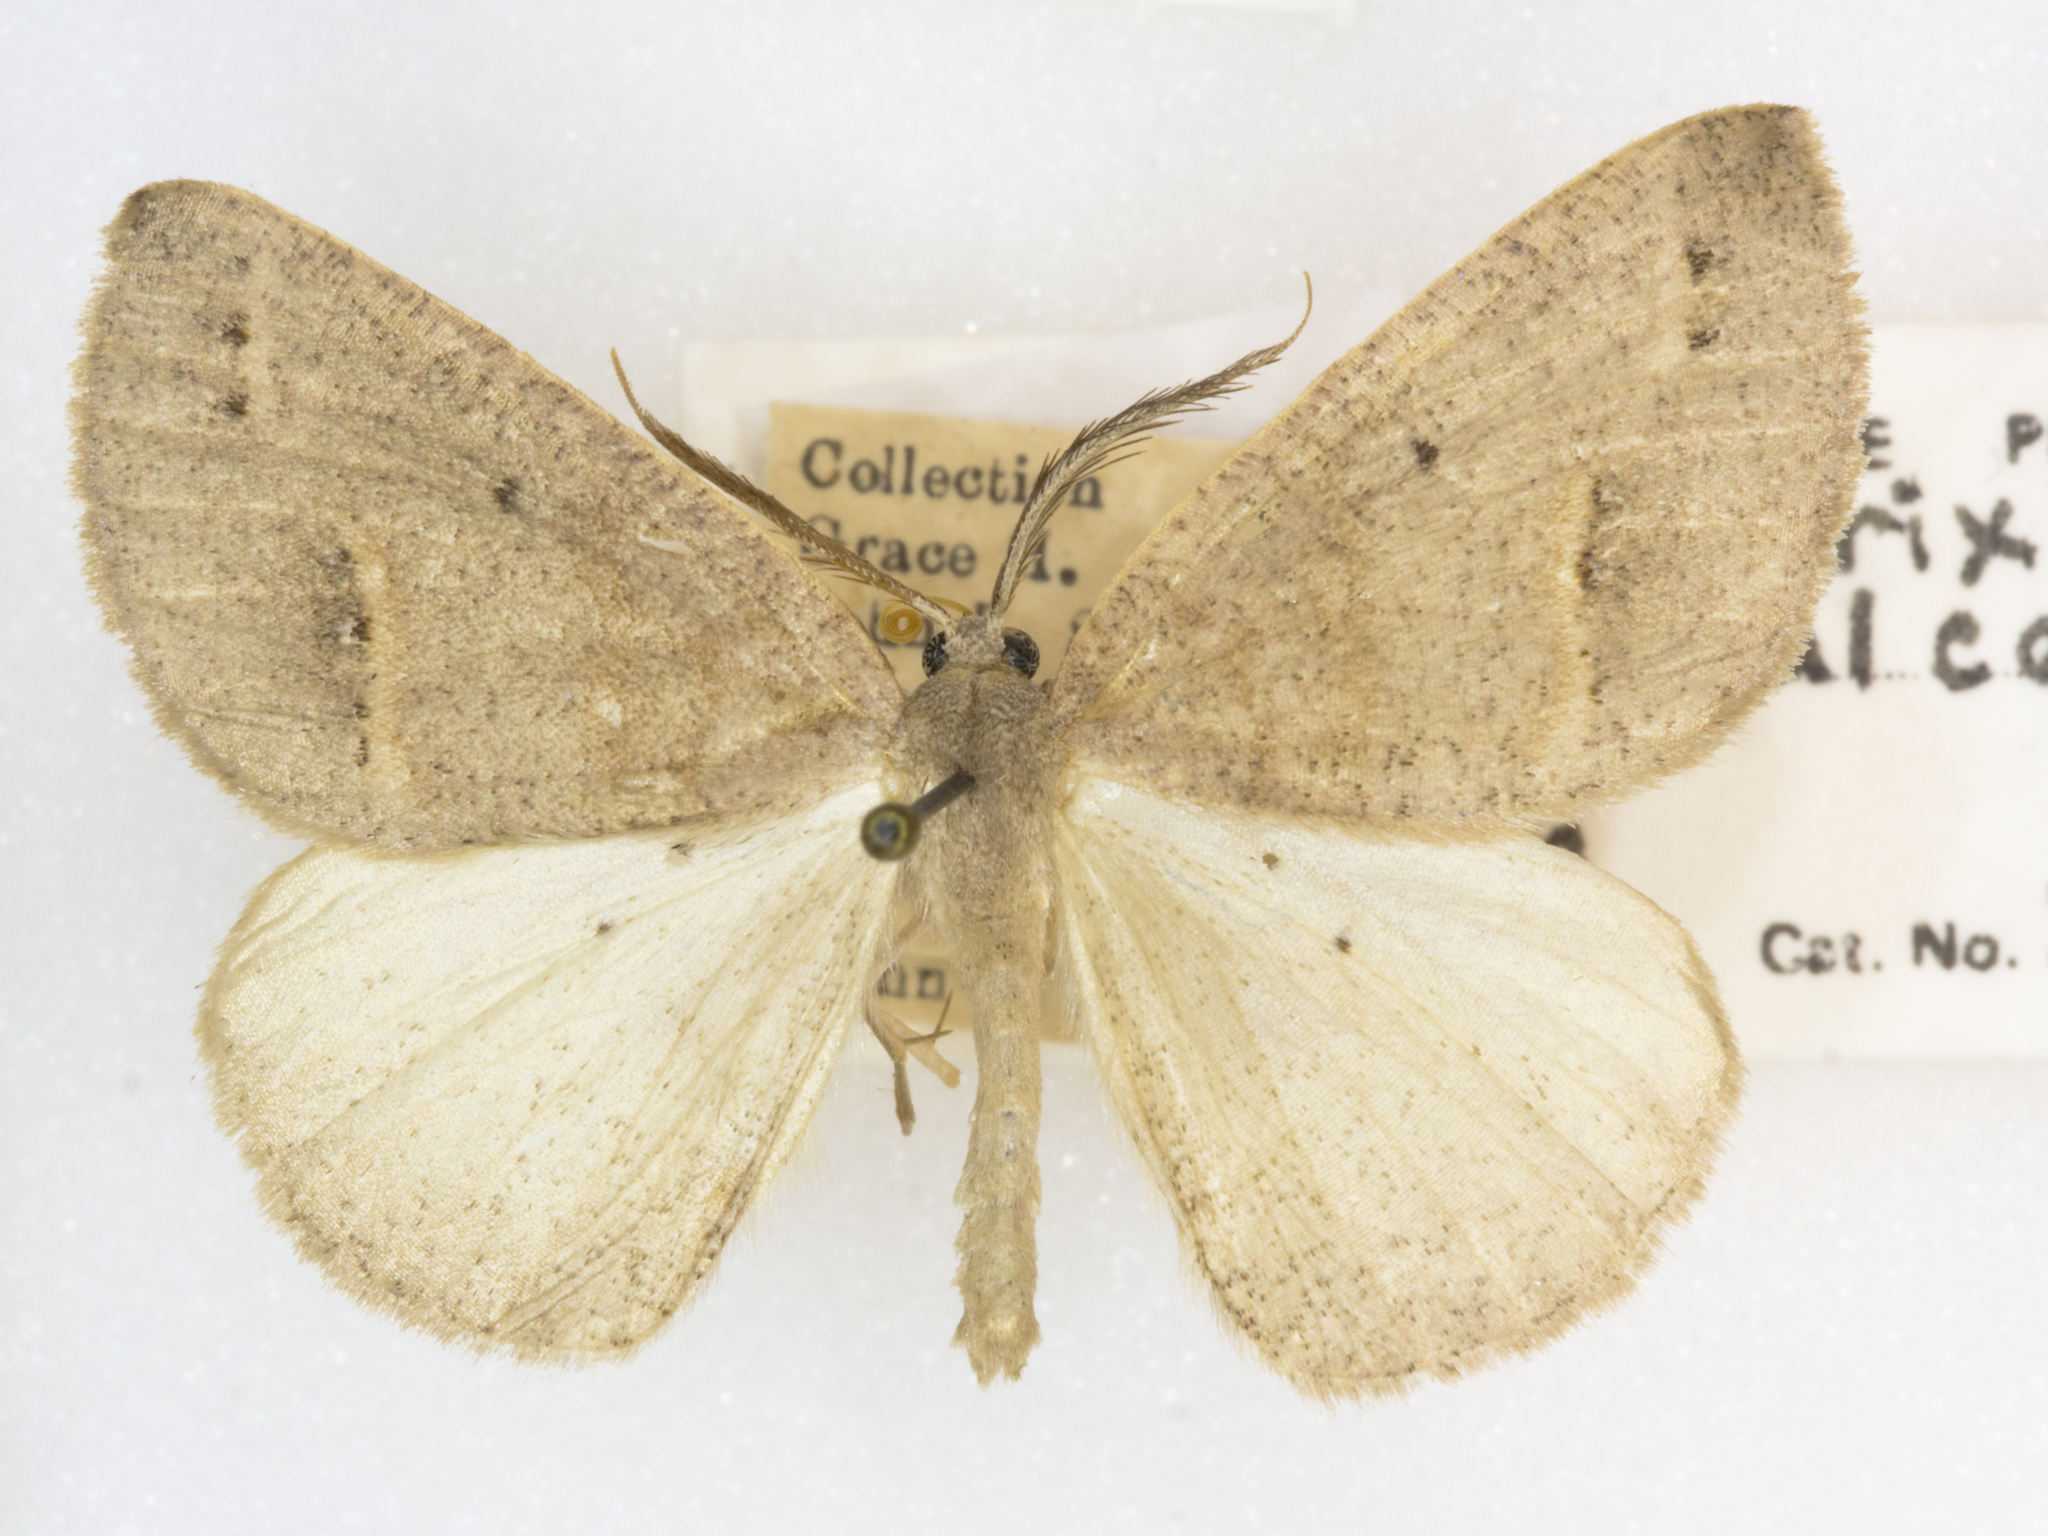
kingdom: Animalia
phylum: Arthropoda
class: Insecta
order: Lepidoptera
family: Geometridae
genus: Drepanulatrix
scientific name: Drepanulatrix unicalcararia
